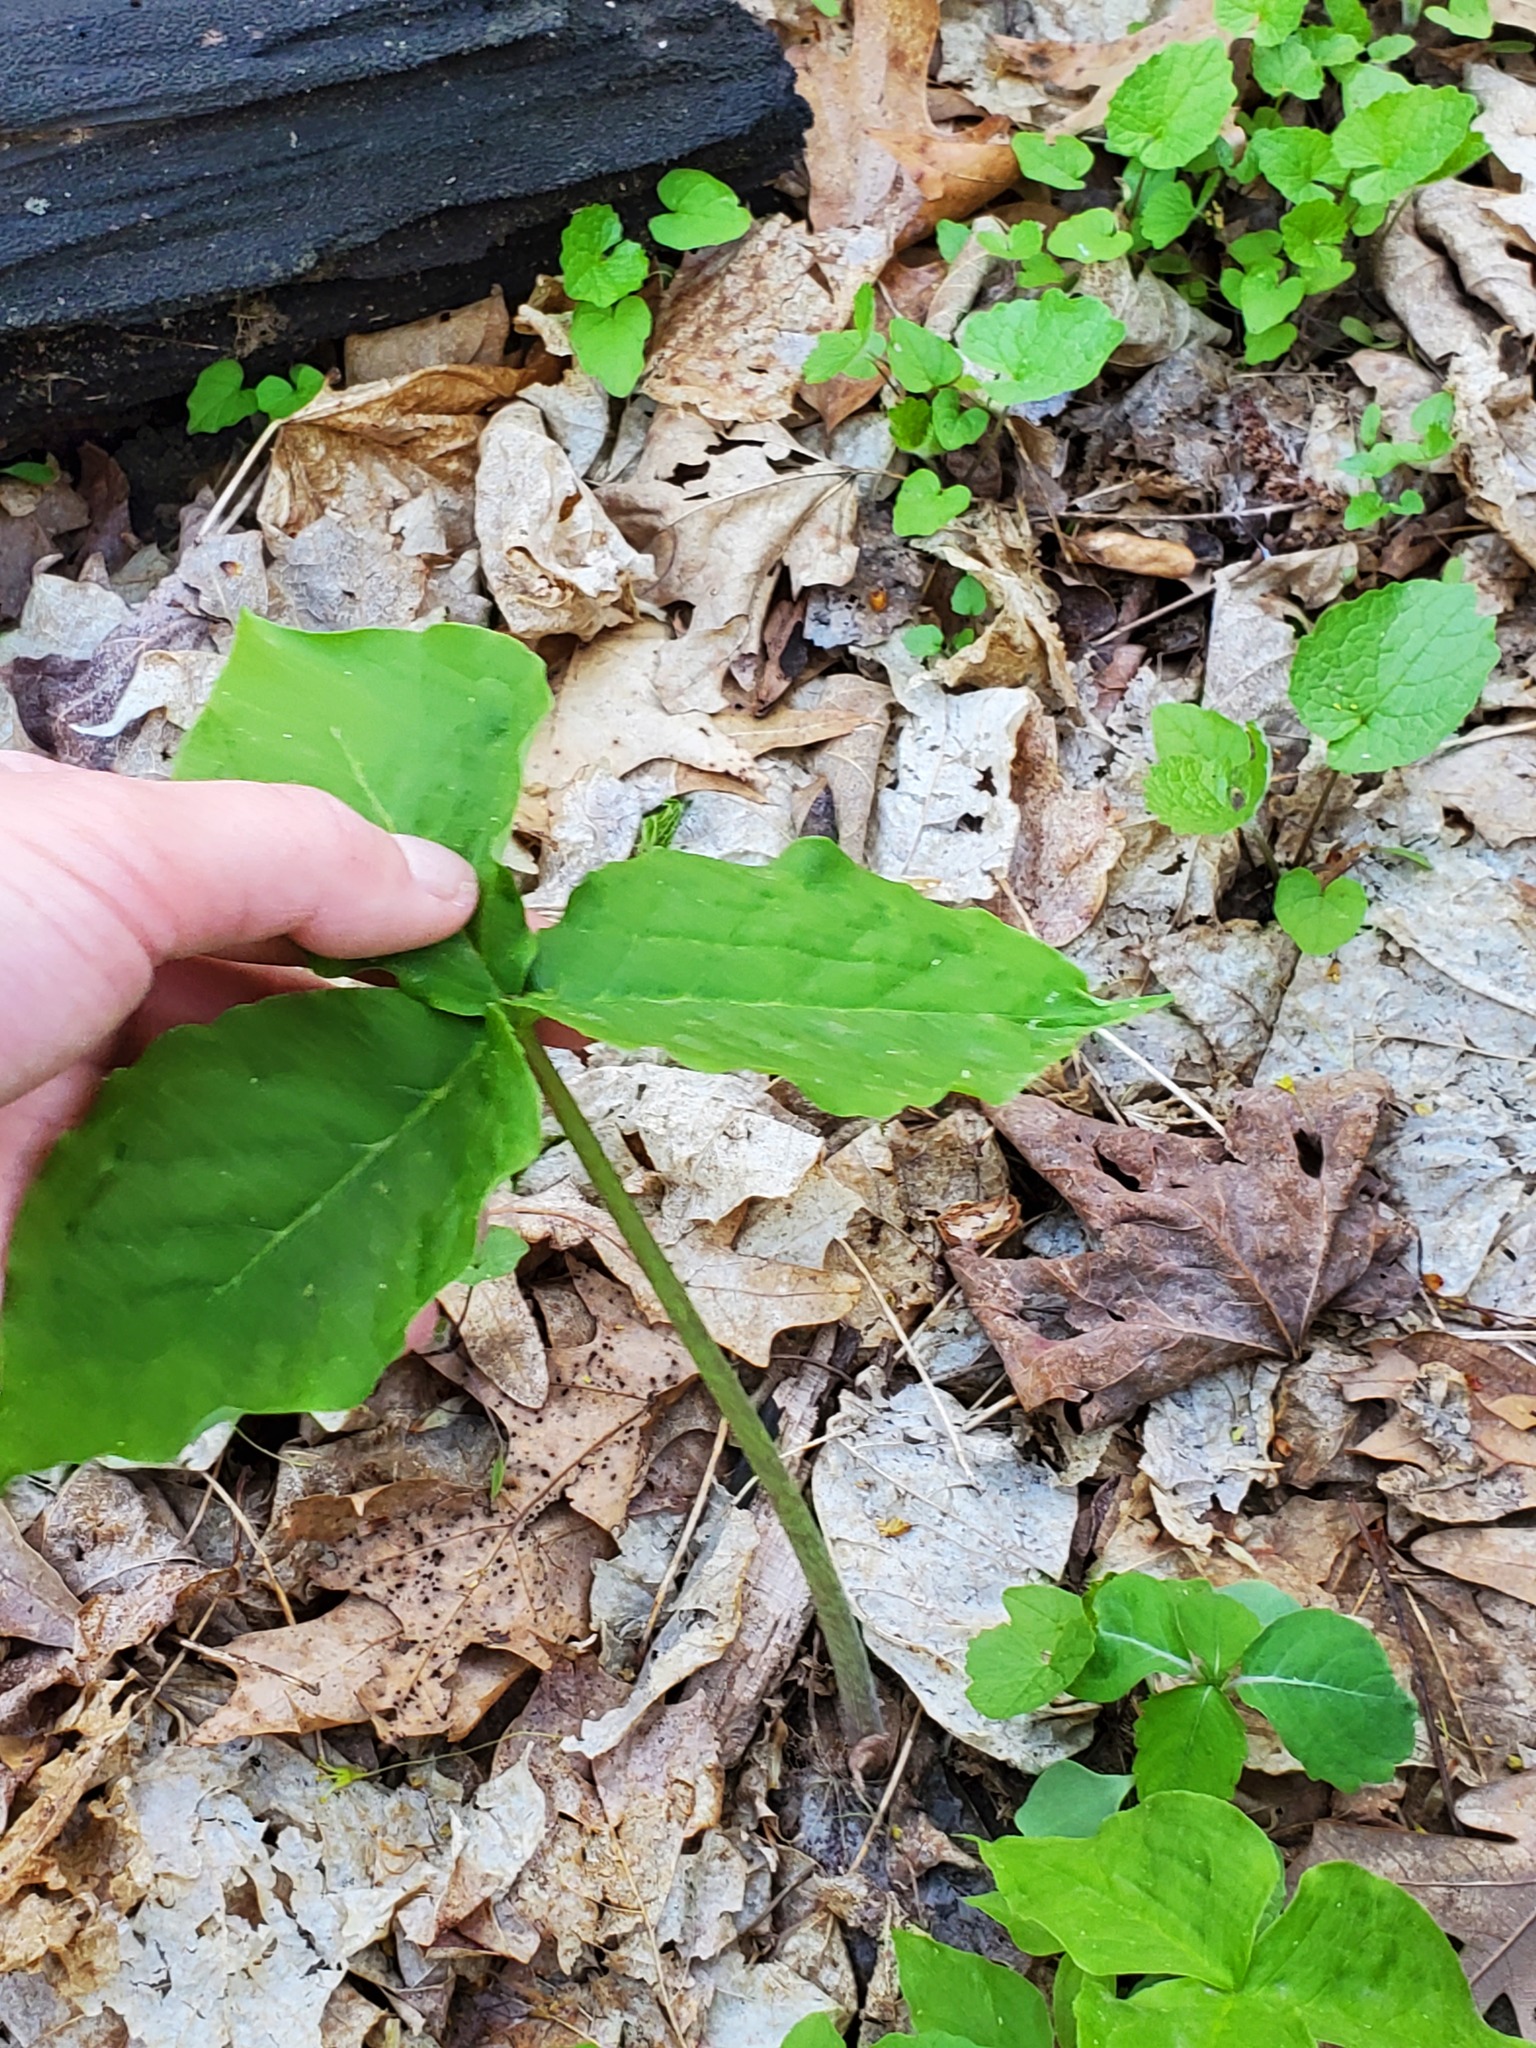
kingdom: Plantae
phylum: Tracheophyta
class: Liliopsida
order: Alismatales
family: Araceae
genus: Arisaema
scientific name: Arisaema triphyllum
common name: Jack-in-the-pulpit
